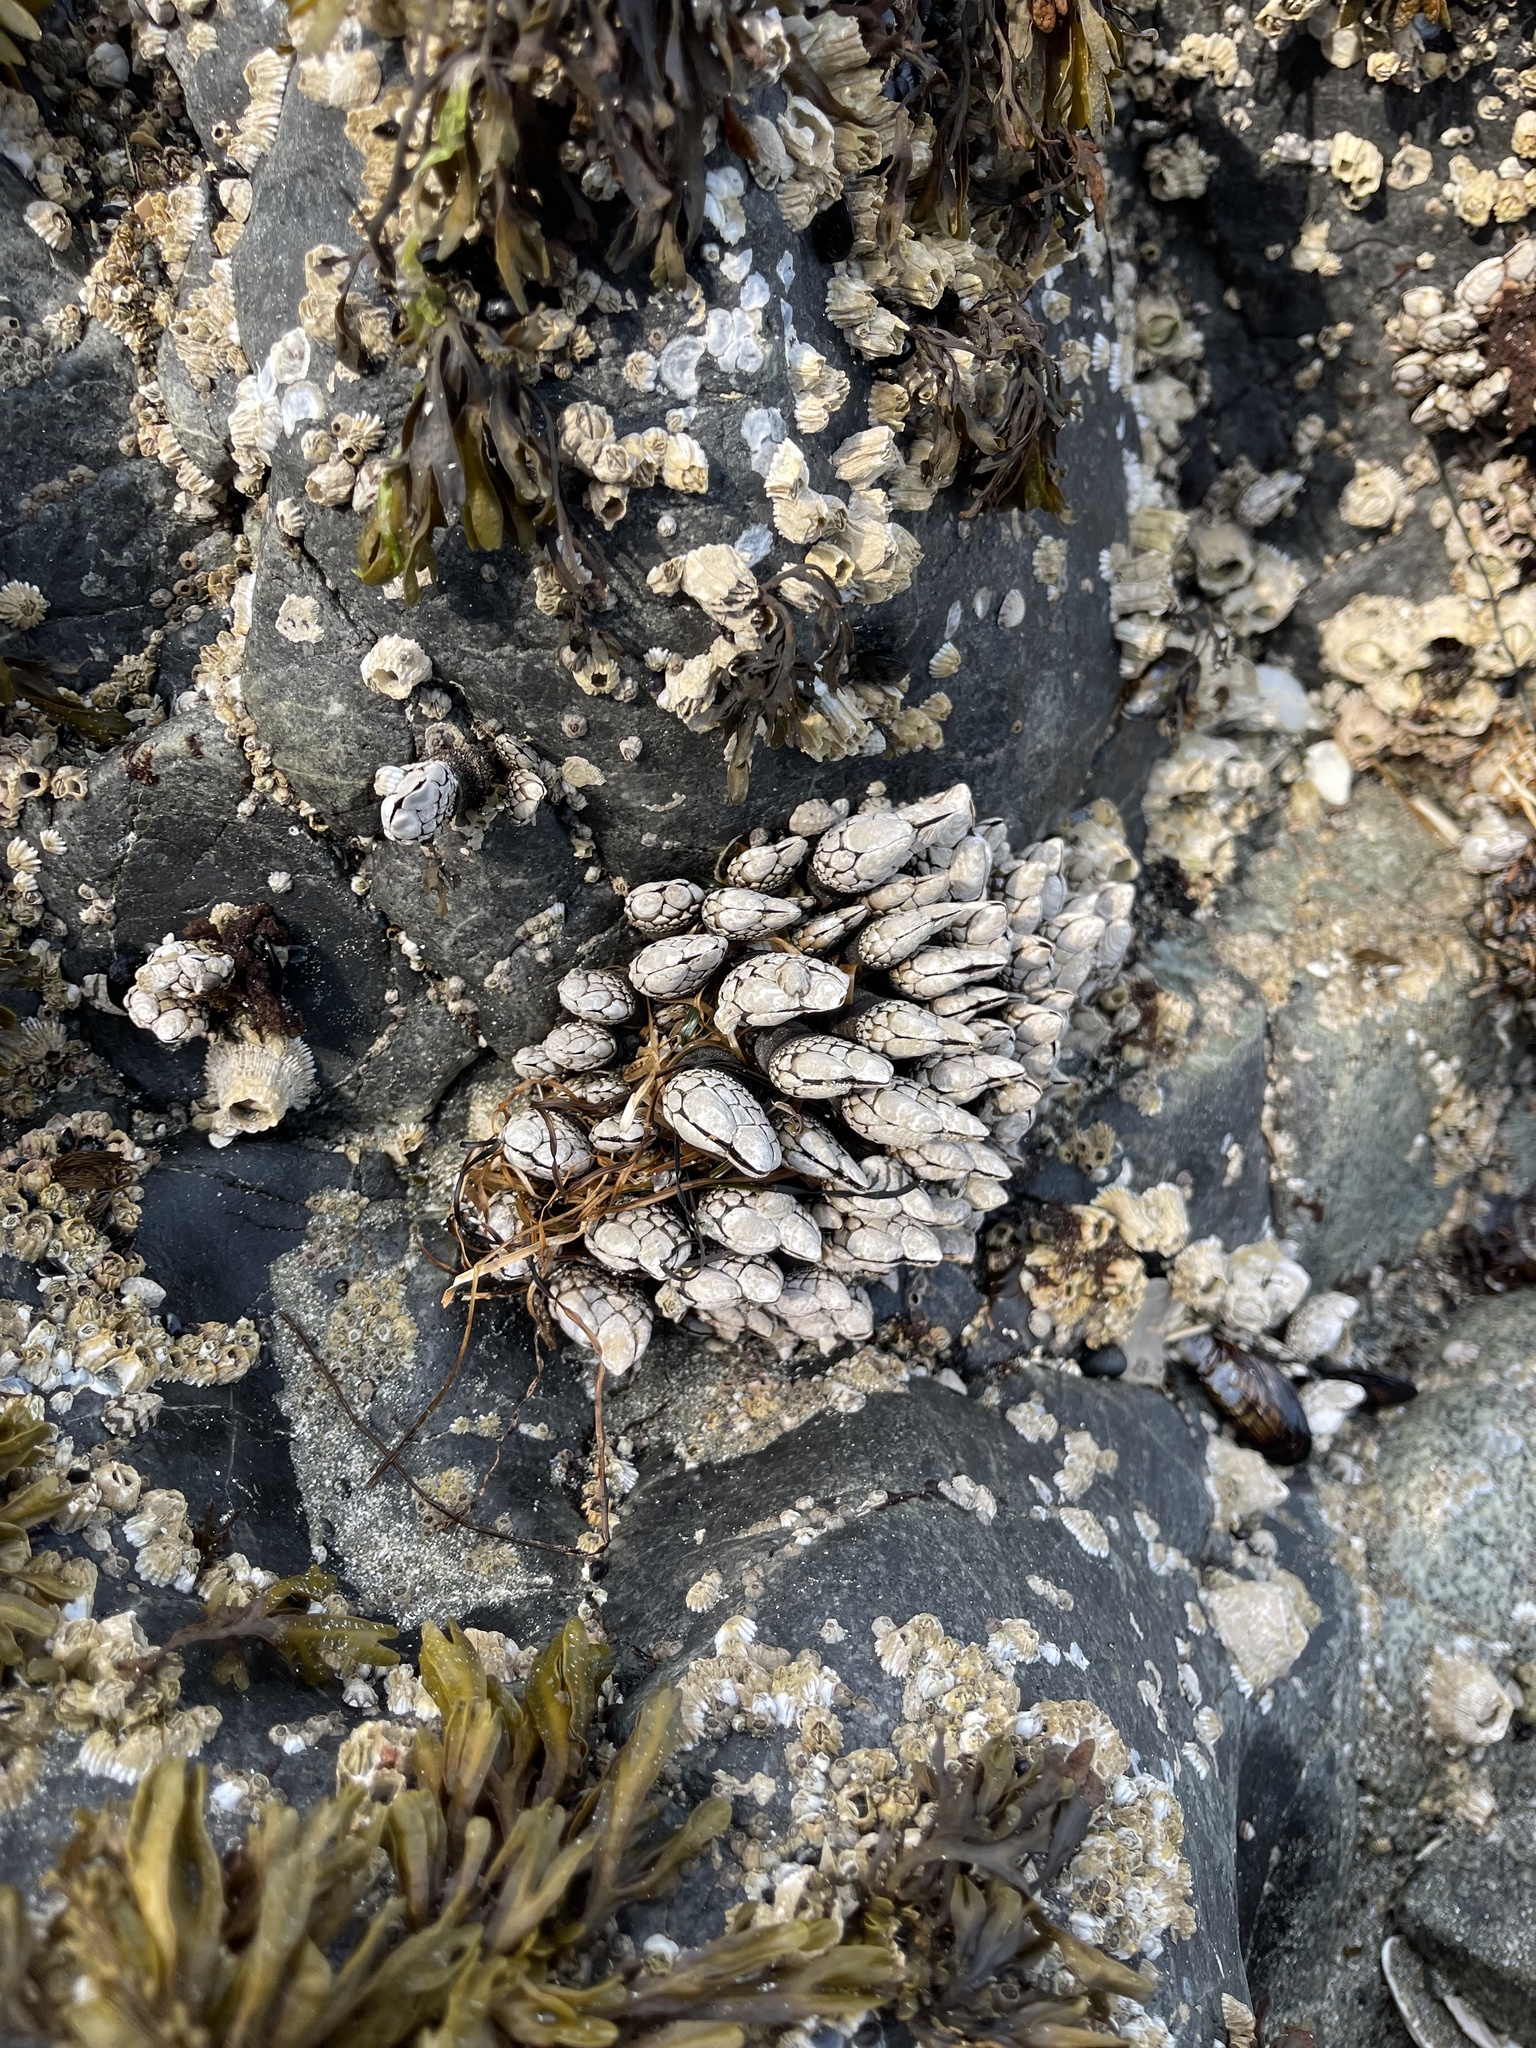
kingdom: Animalia
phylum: Arthropoda
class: Maxillopoda
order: Pedunculata
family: Pollicipedidae
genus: Pollicipes
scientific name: Pollicipes polymerus
